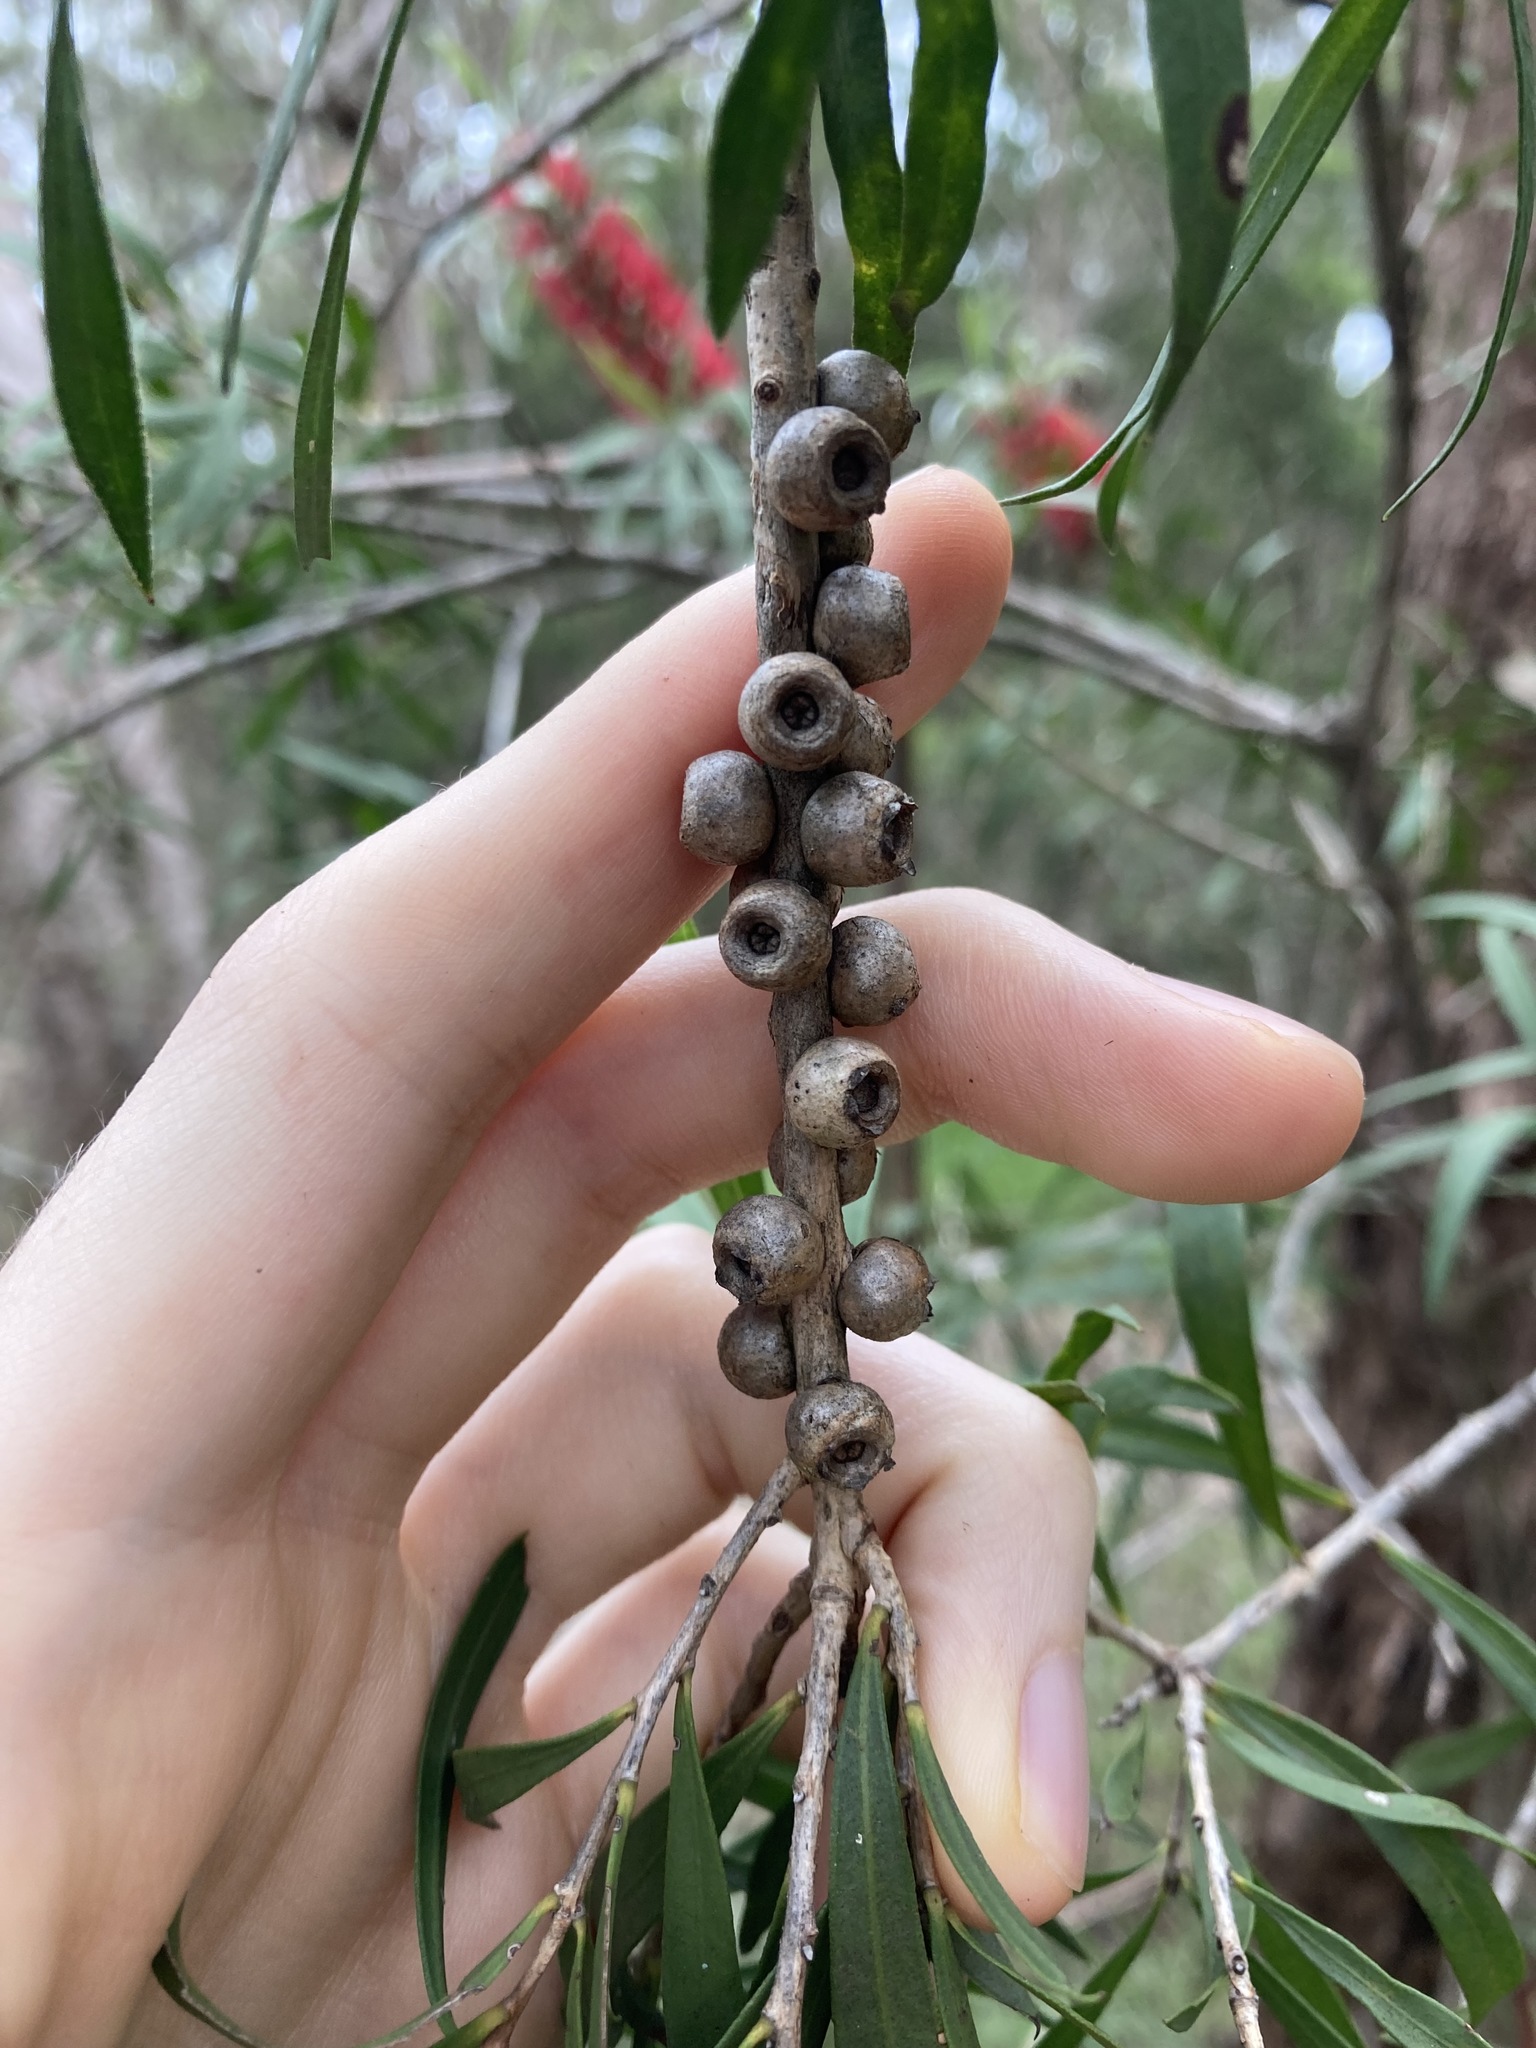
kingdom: Plantae
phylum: Tracheophyta
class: Magnoliopsida
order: Myrtales
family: Myrtaceae
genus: Melaleuca
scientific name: Melaleuca linearifolia
